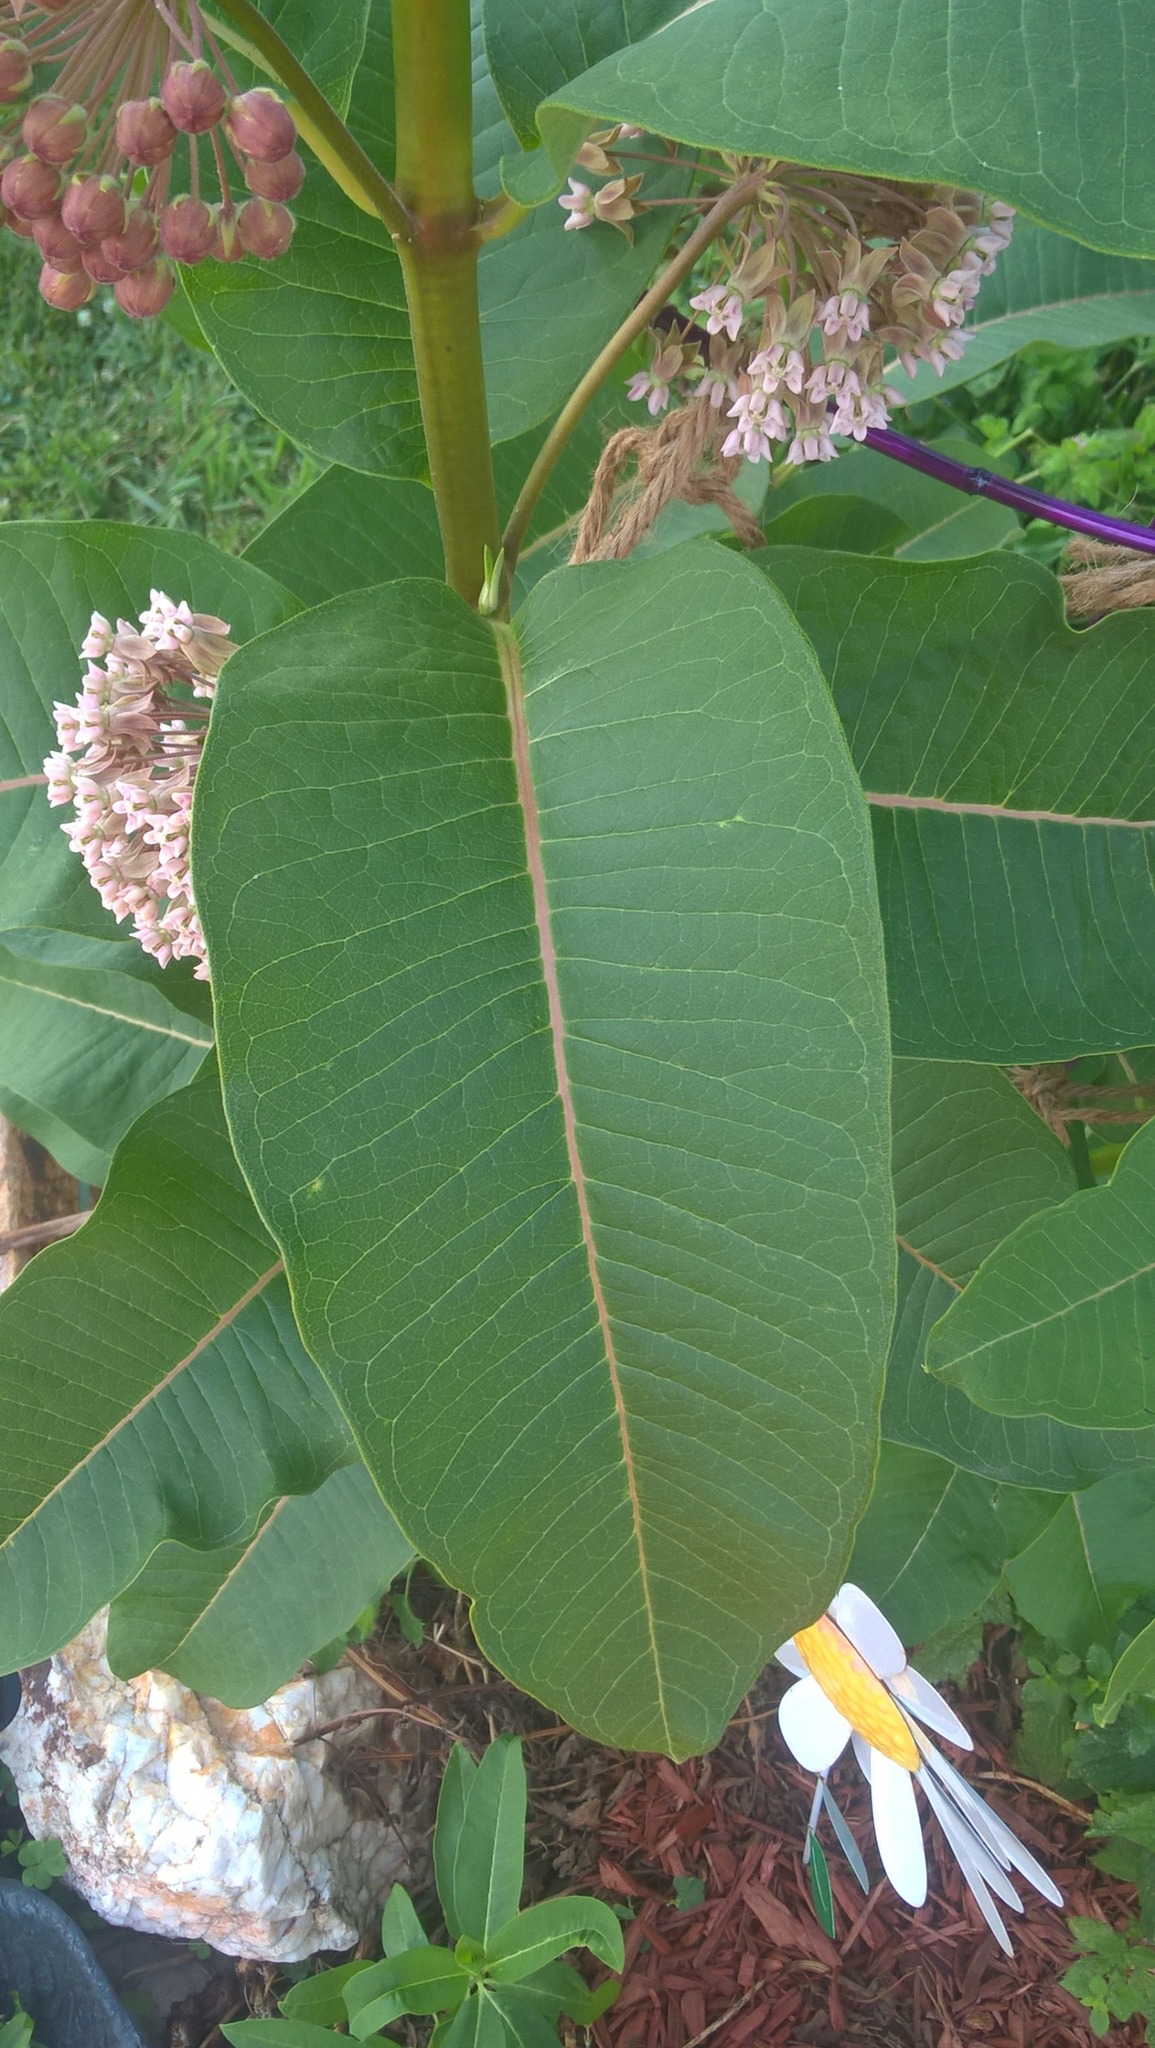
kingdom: Plantae
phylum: Tracheophyta
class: Magnoliopsida
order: Gentianales
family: Apocynaceae
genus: Asclepias
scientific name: Asclepias syriaca
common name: Common milkweed
